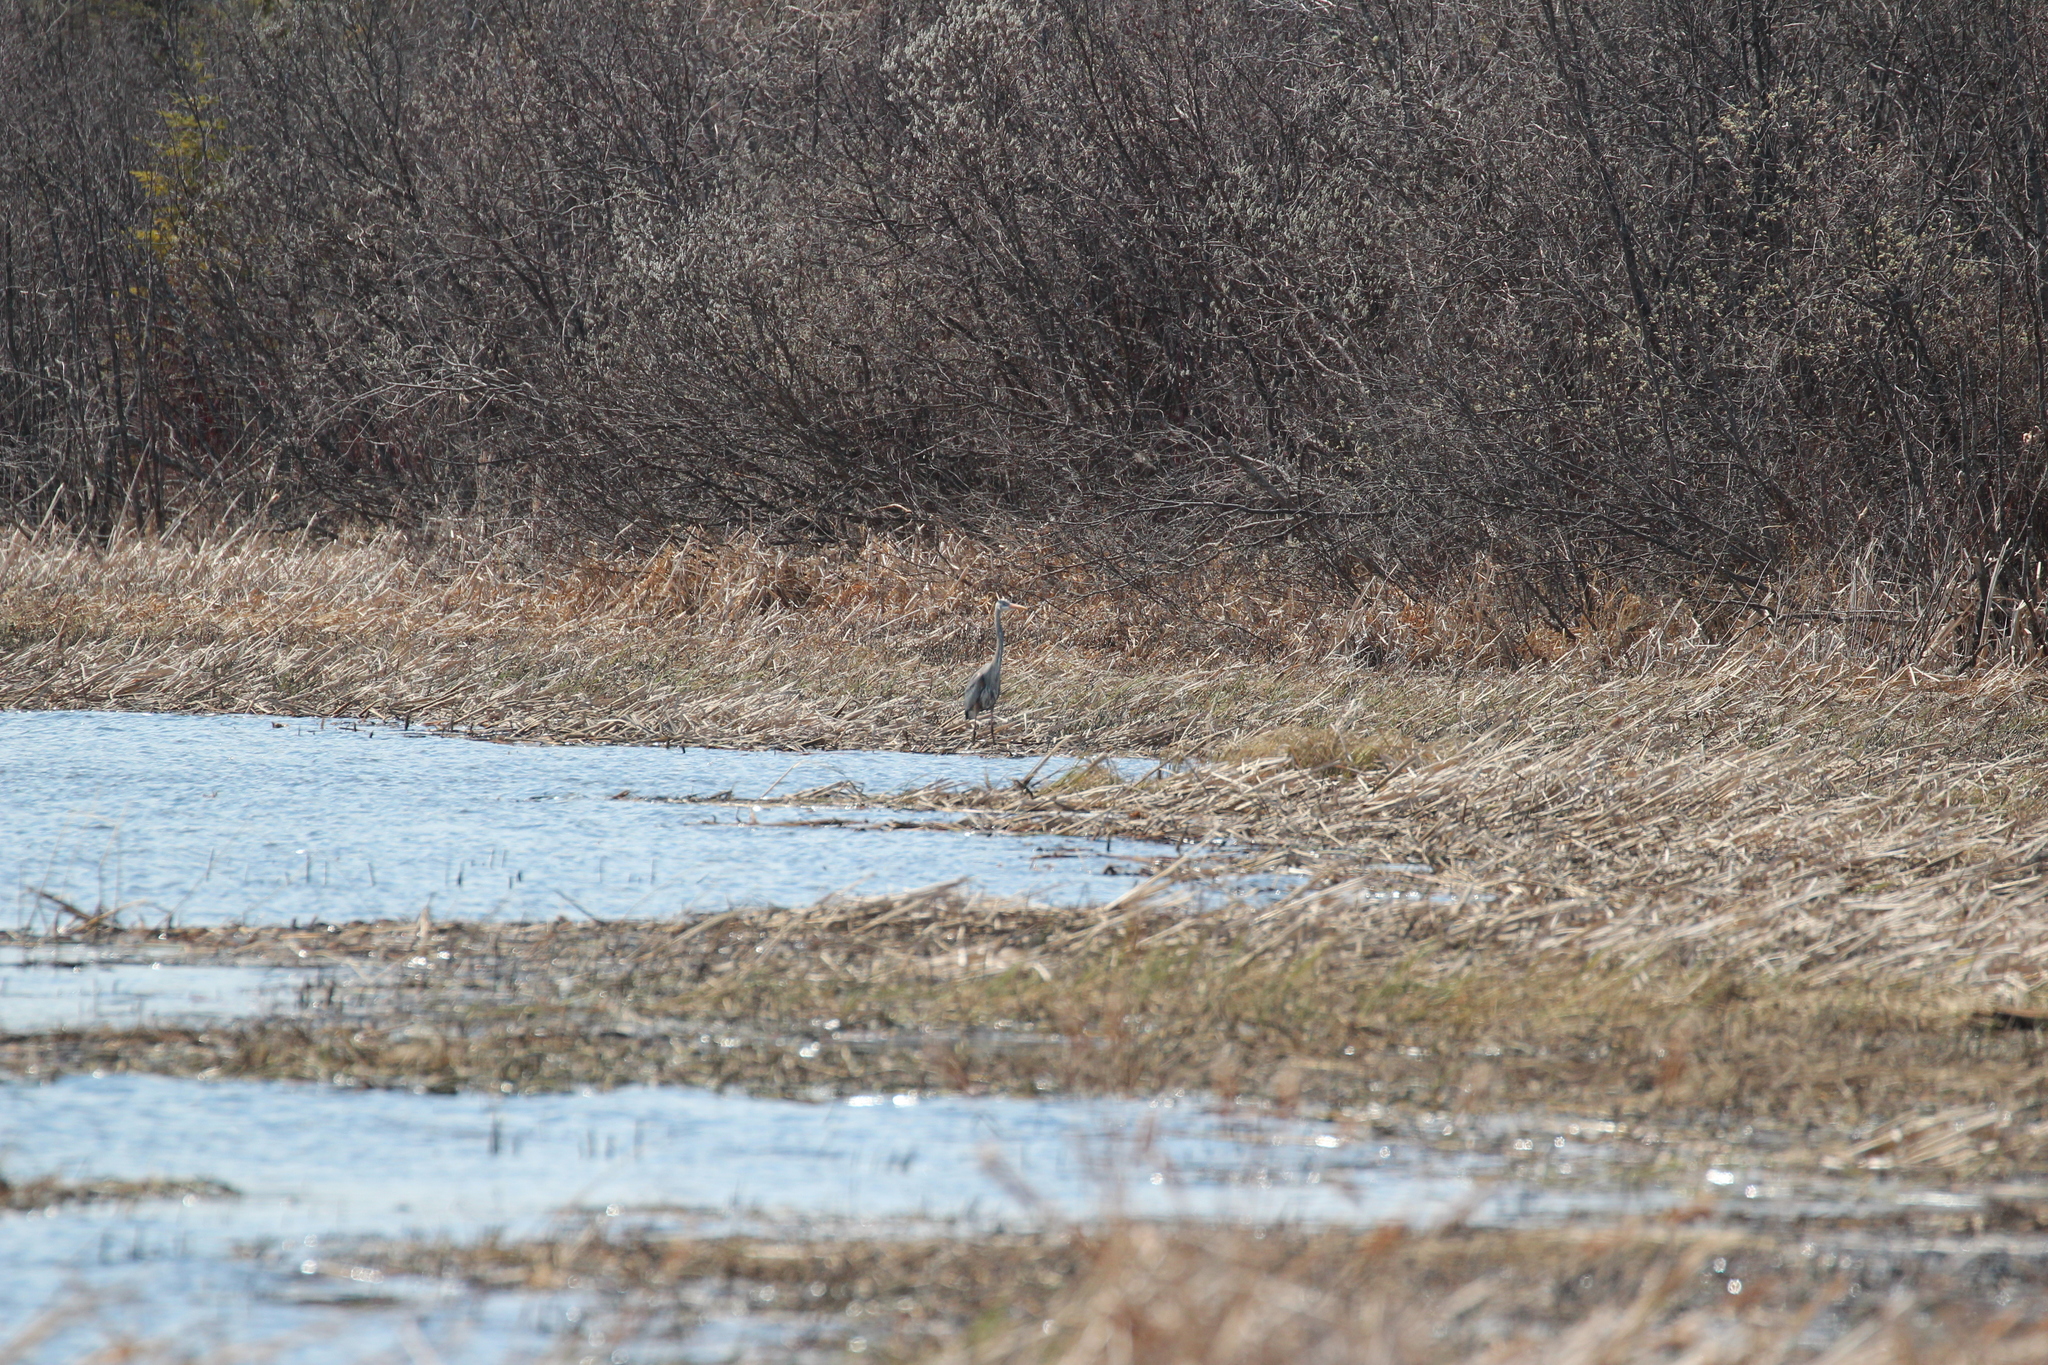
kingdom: Animalia
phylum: Chordata
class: Aves
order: Pelecaniformes
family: Ardeidae
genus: Ardea
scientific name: Ardea herodias
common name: Great blue heron
